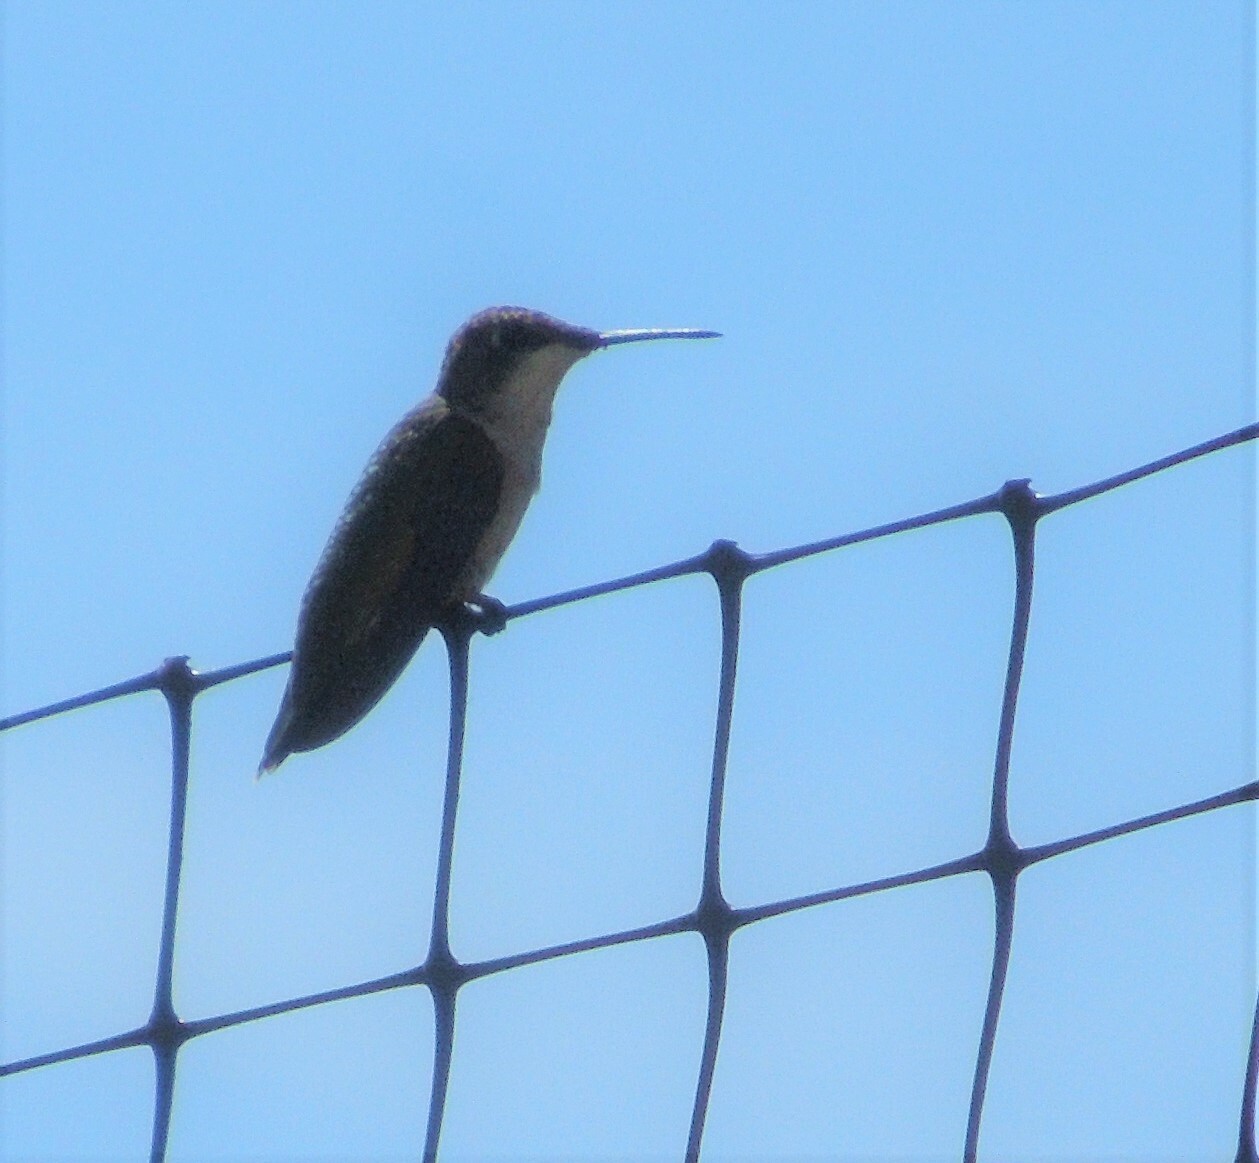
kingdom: Animalia
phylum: Chordata
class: Aves
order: Apodiformes
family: Trochilidae
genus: Archilochus
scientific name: Archilochus colubris
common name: Ruby-throated hummingbird
